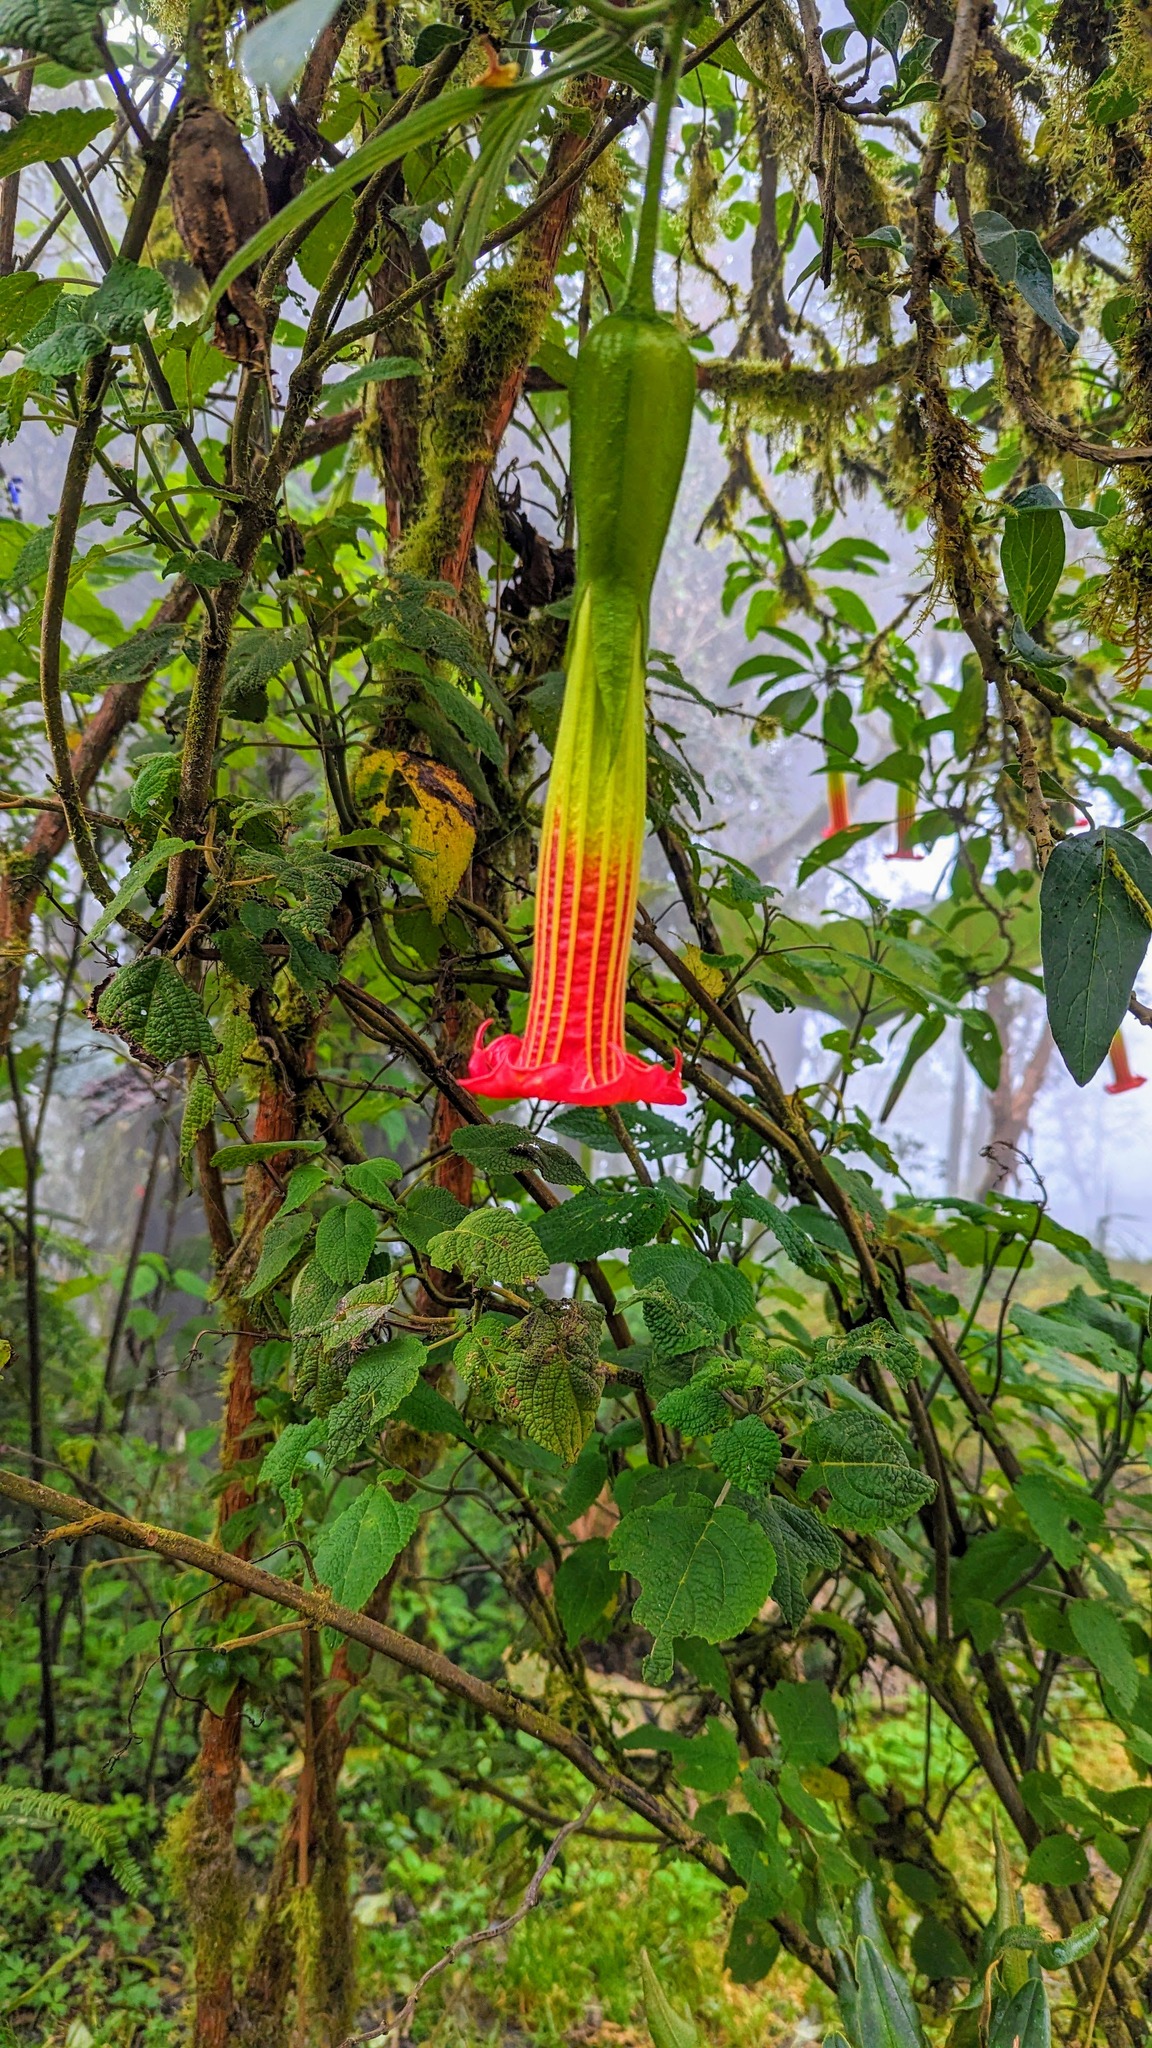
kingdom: Plantae
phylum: Tracheophyta
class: Magnoliopsida
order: Solanales
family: Solanaceae
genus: Brugmansia
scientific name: Brugmansia sanguinea
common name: Red floripontio
